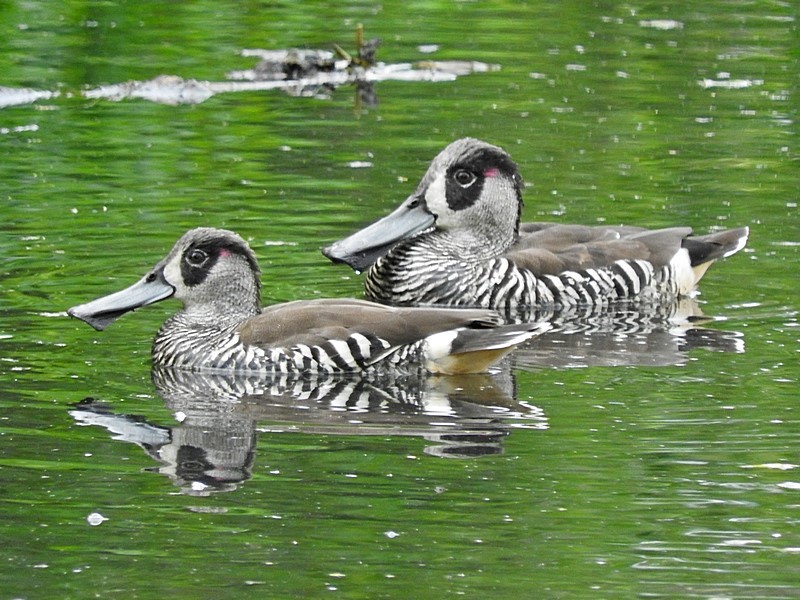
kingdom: Animalia
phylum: Chordata
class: Aves
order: Anseriformes
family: Anatidae
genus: Malacorhynchus
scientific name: Malacorhynchus membranaceus
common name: Pink-eared duck
